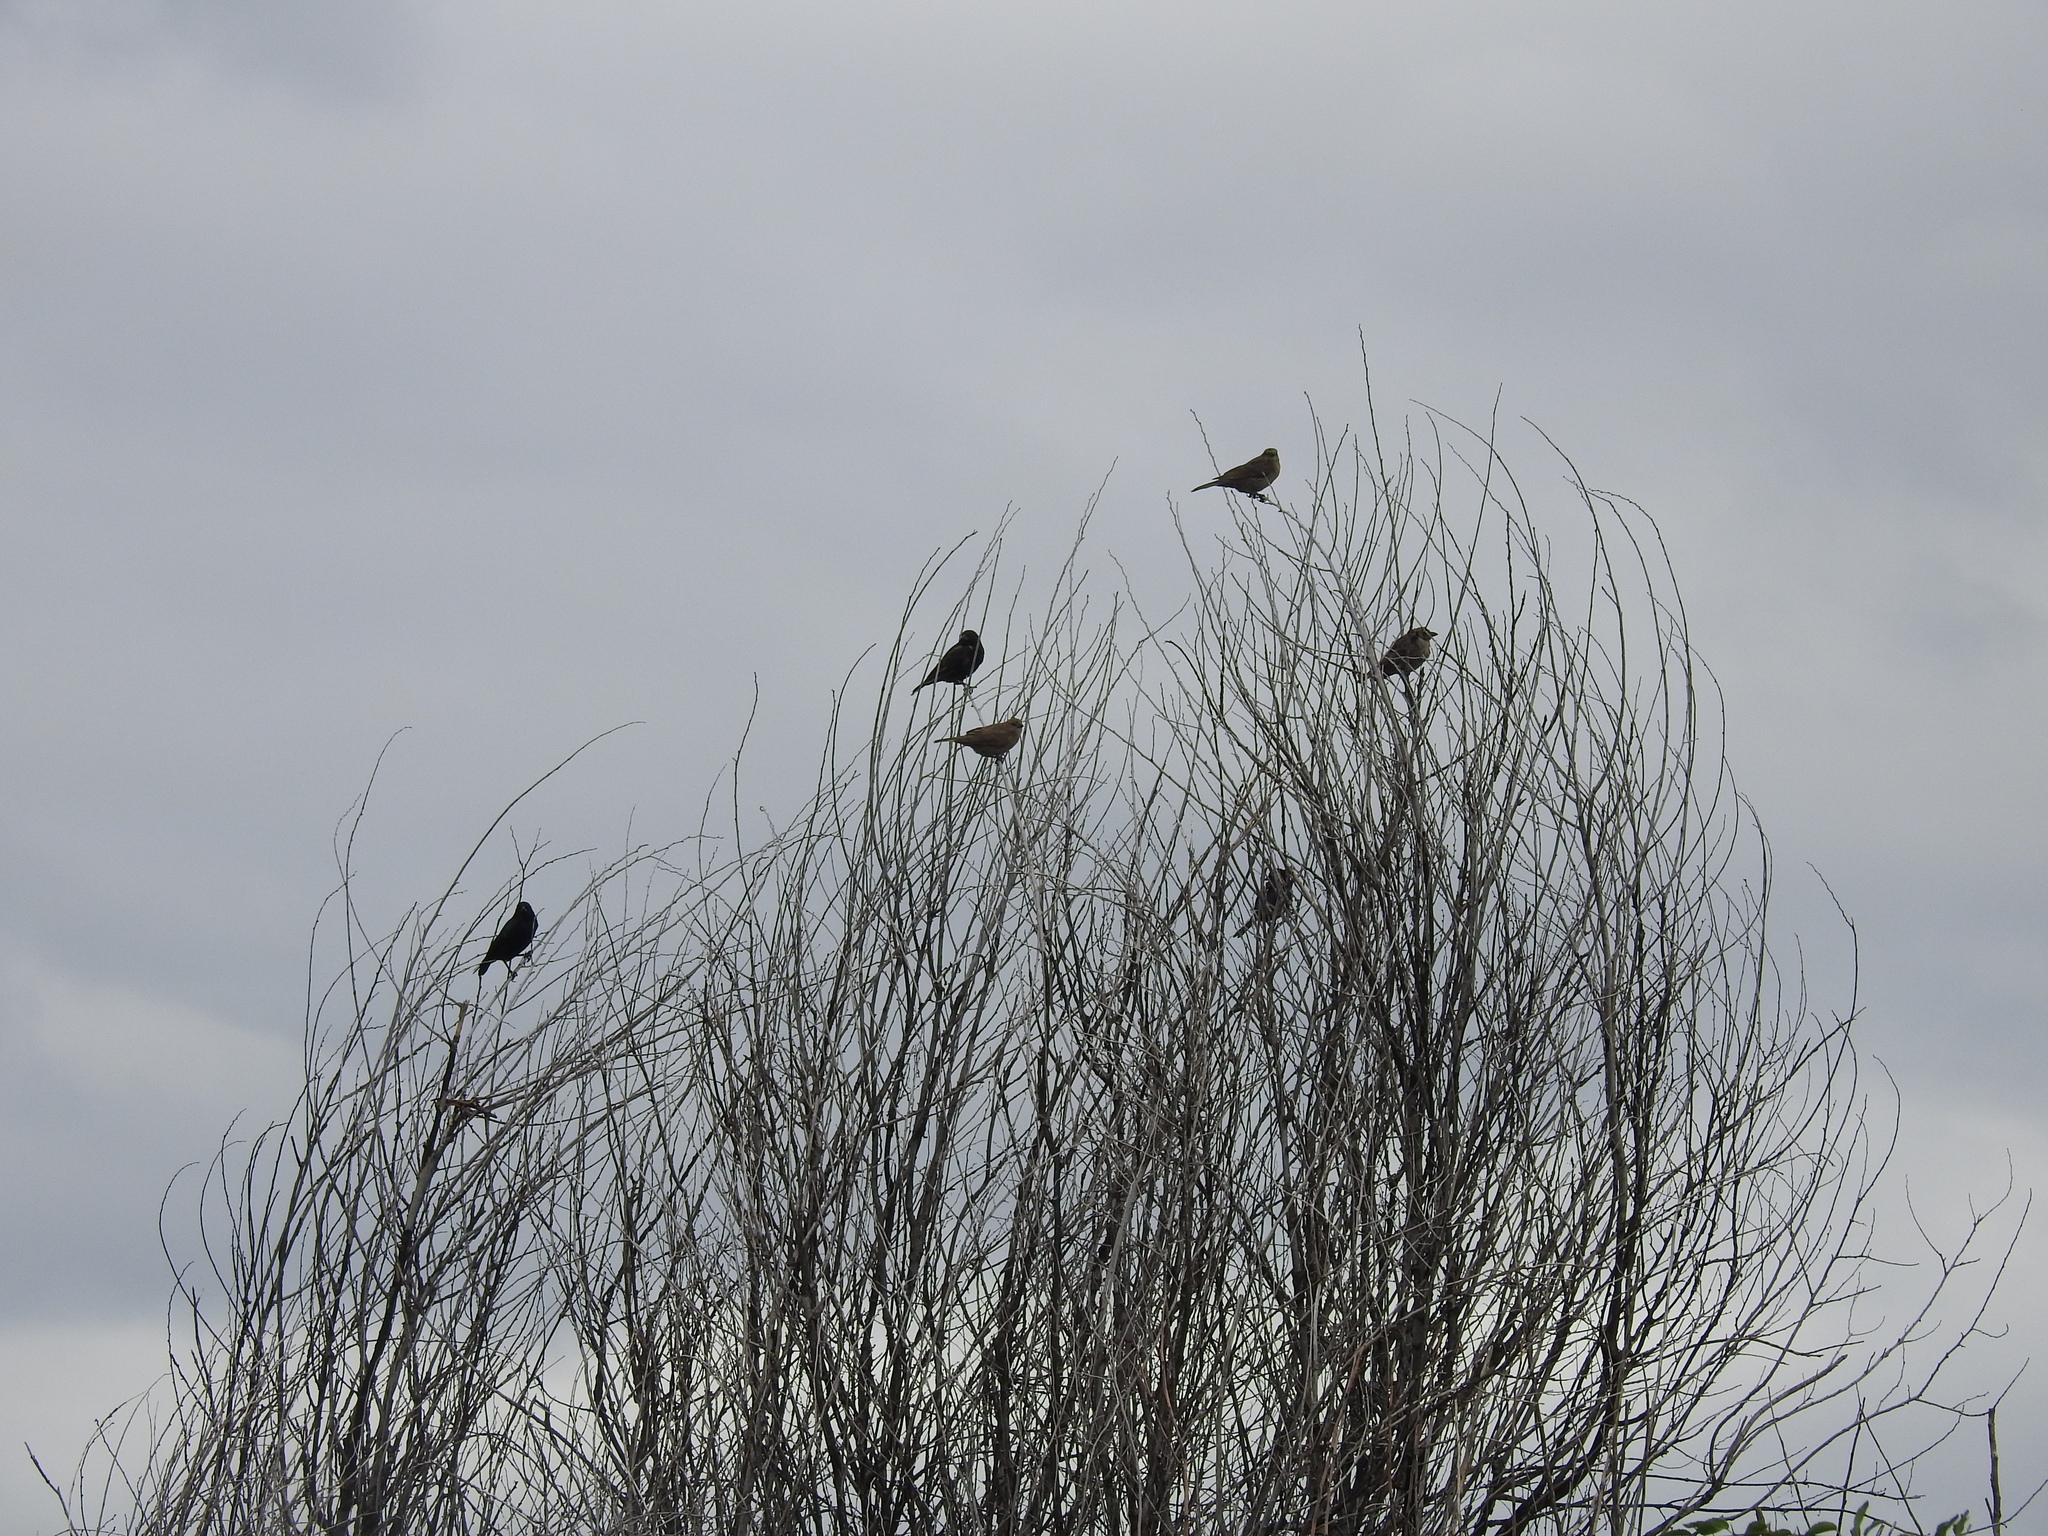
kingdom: Animalia
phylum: Chordata
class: Aves
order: Passeriformes
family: Icteridae
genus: Agelaioides
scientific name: Agelaioides badius
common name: Baywing
